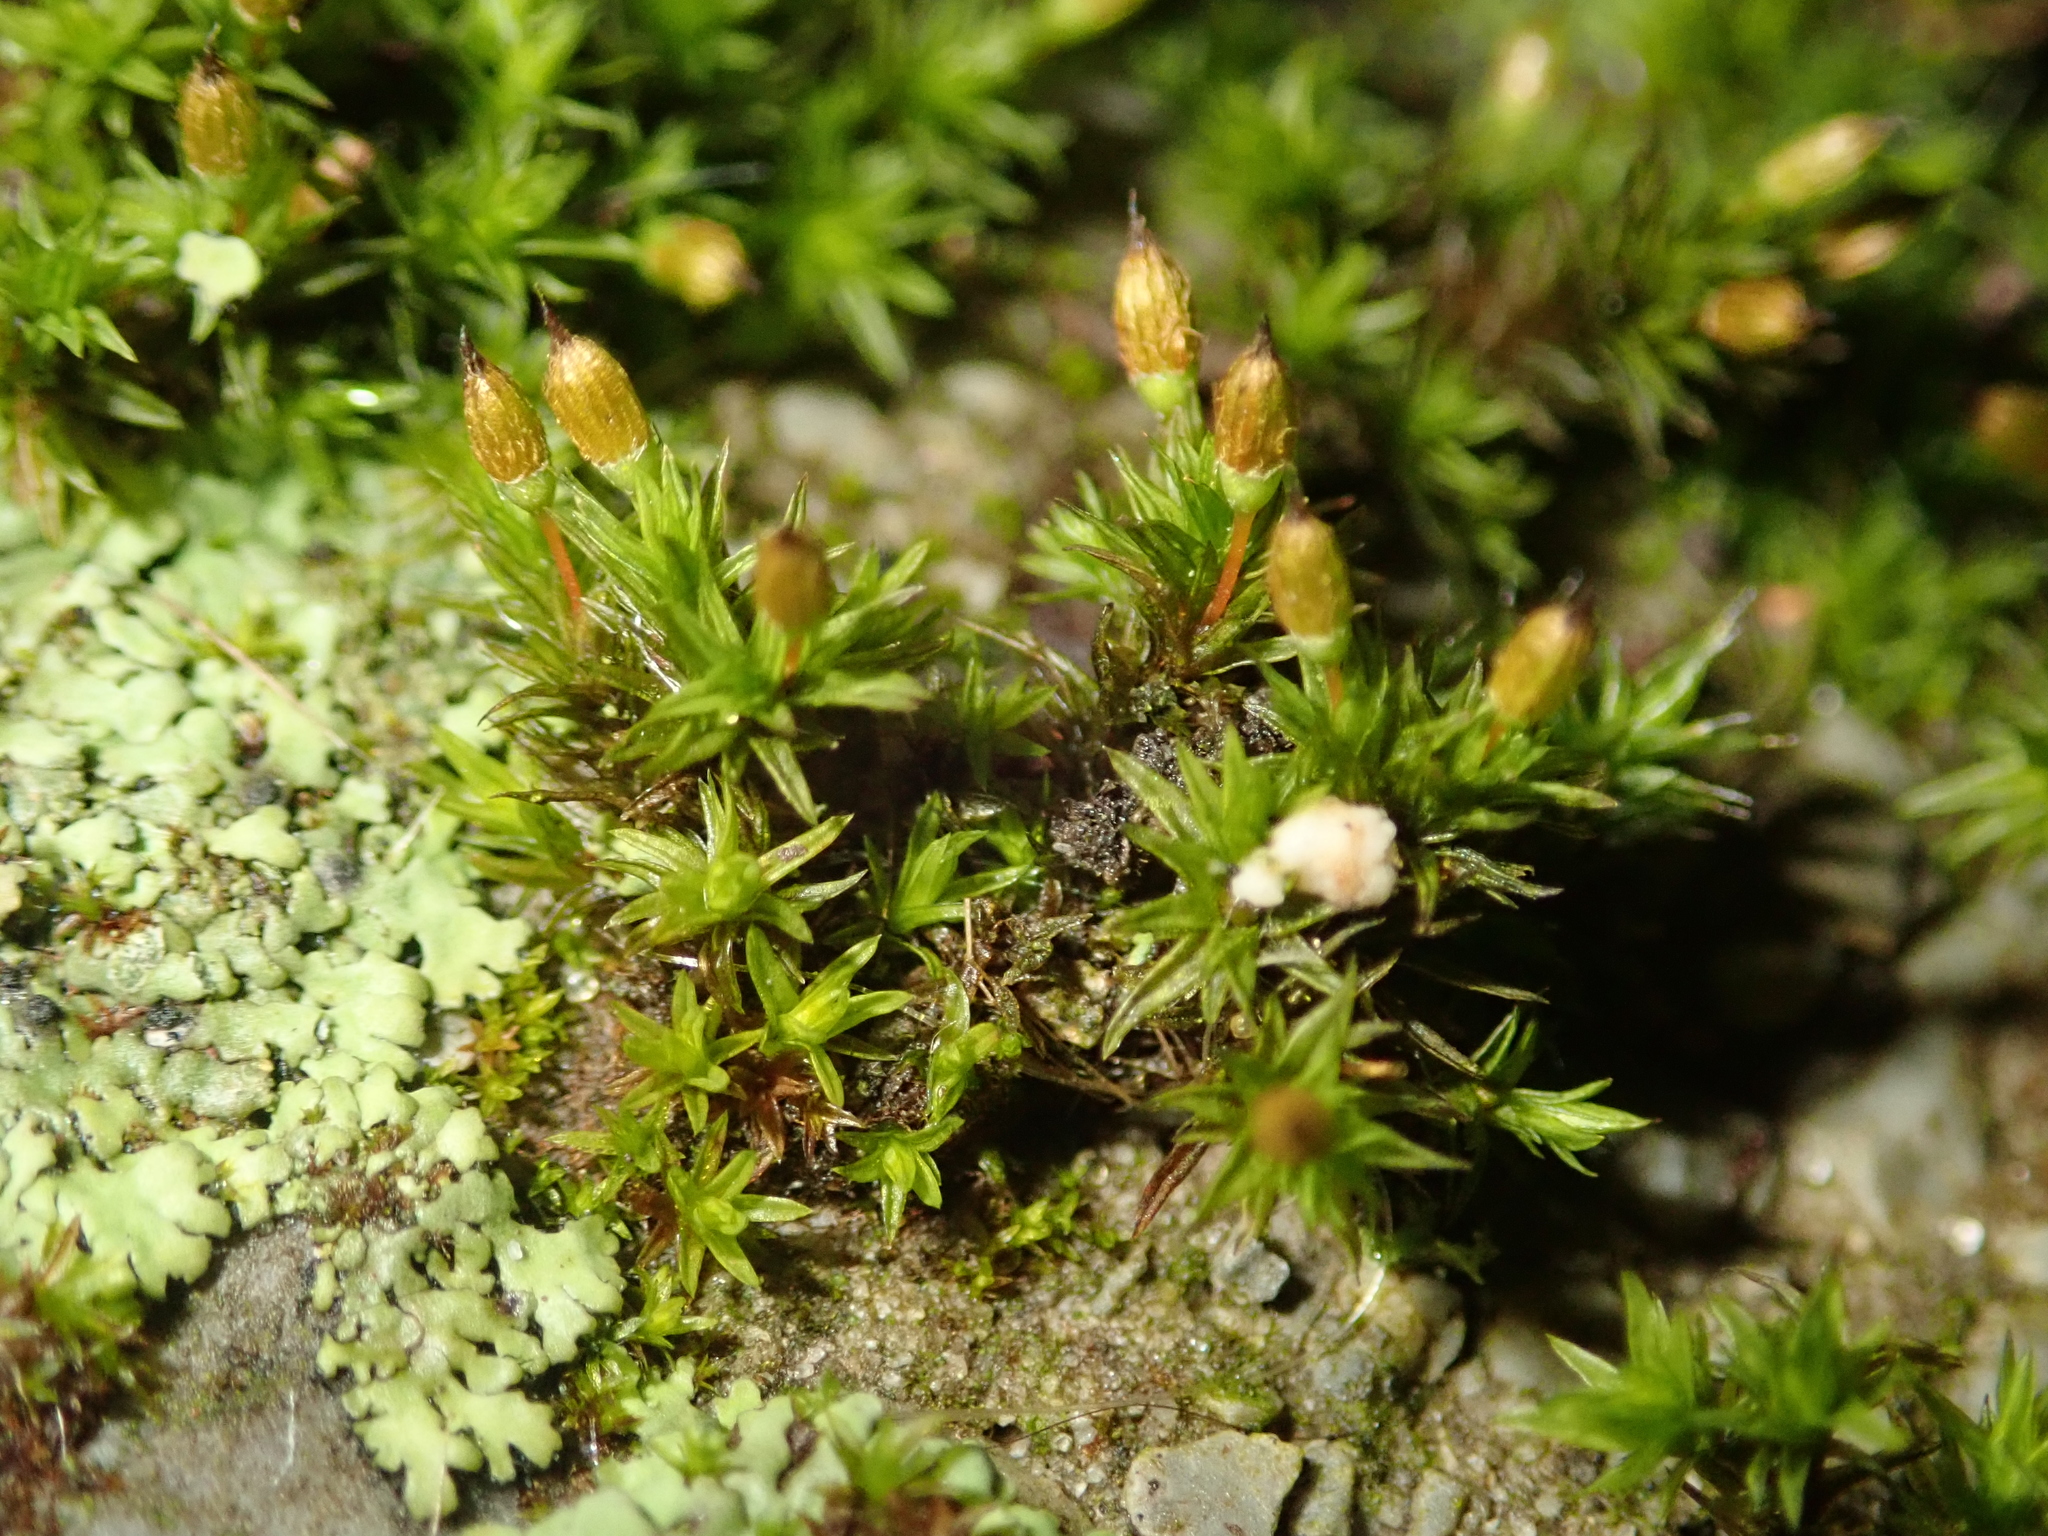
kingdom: Plantae
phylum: Bryophyta
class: Bryopsida
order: Orthotrichales
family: Orthotrichaceae
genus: Orthotrichum
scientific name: Orthotrichum anomalum
